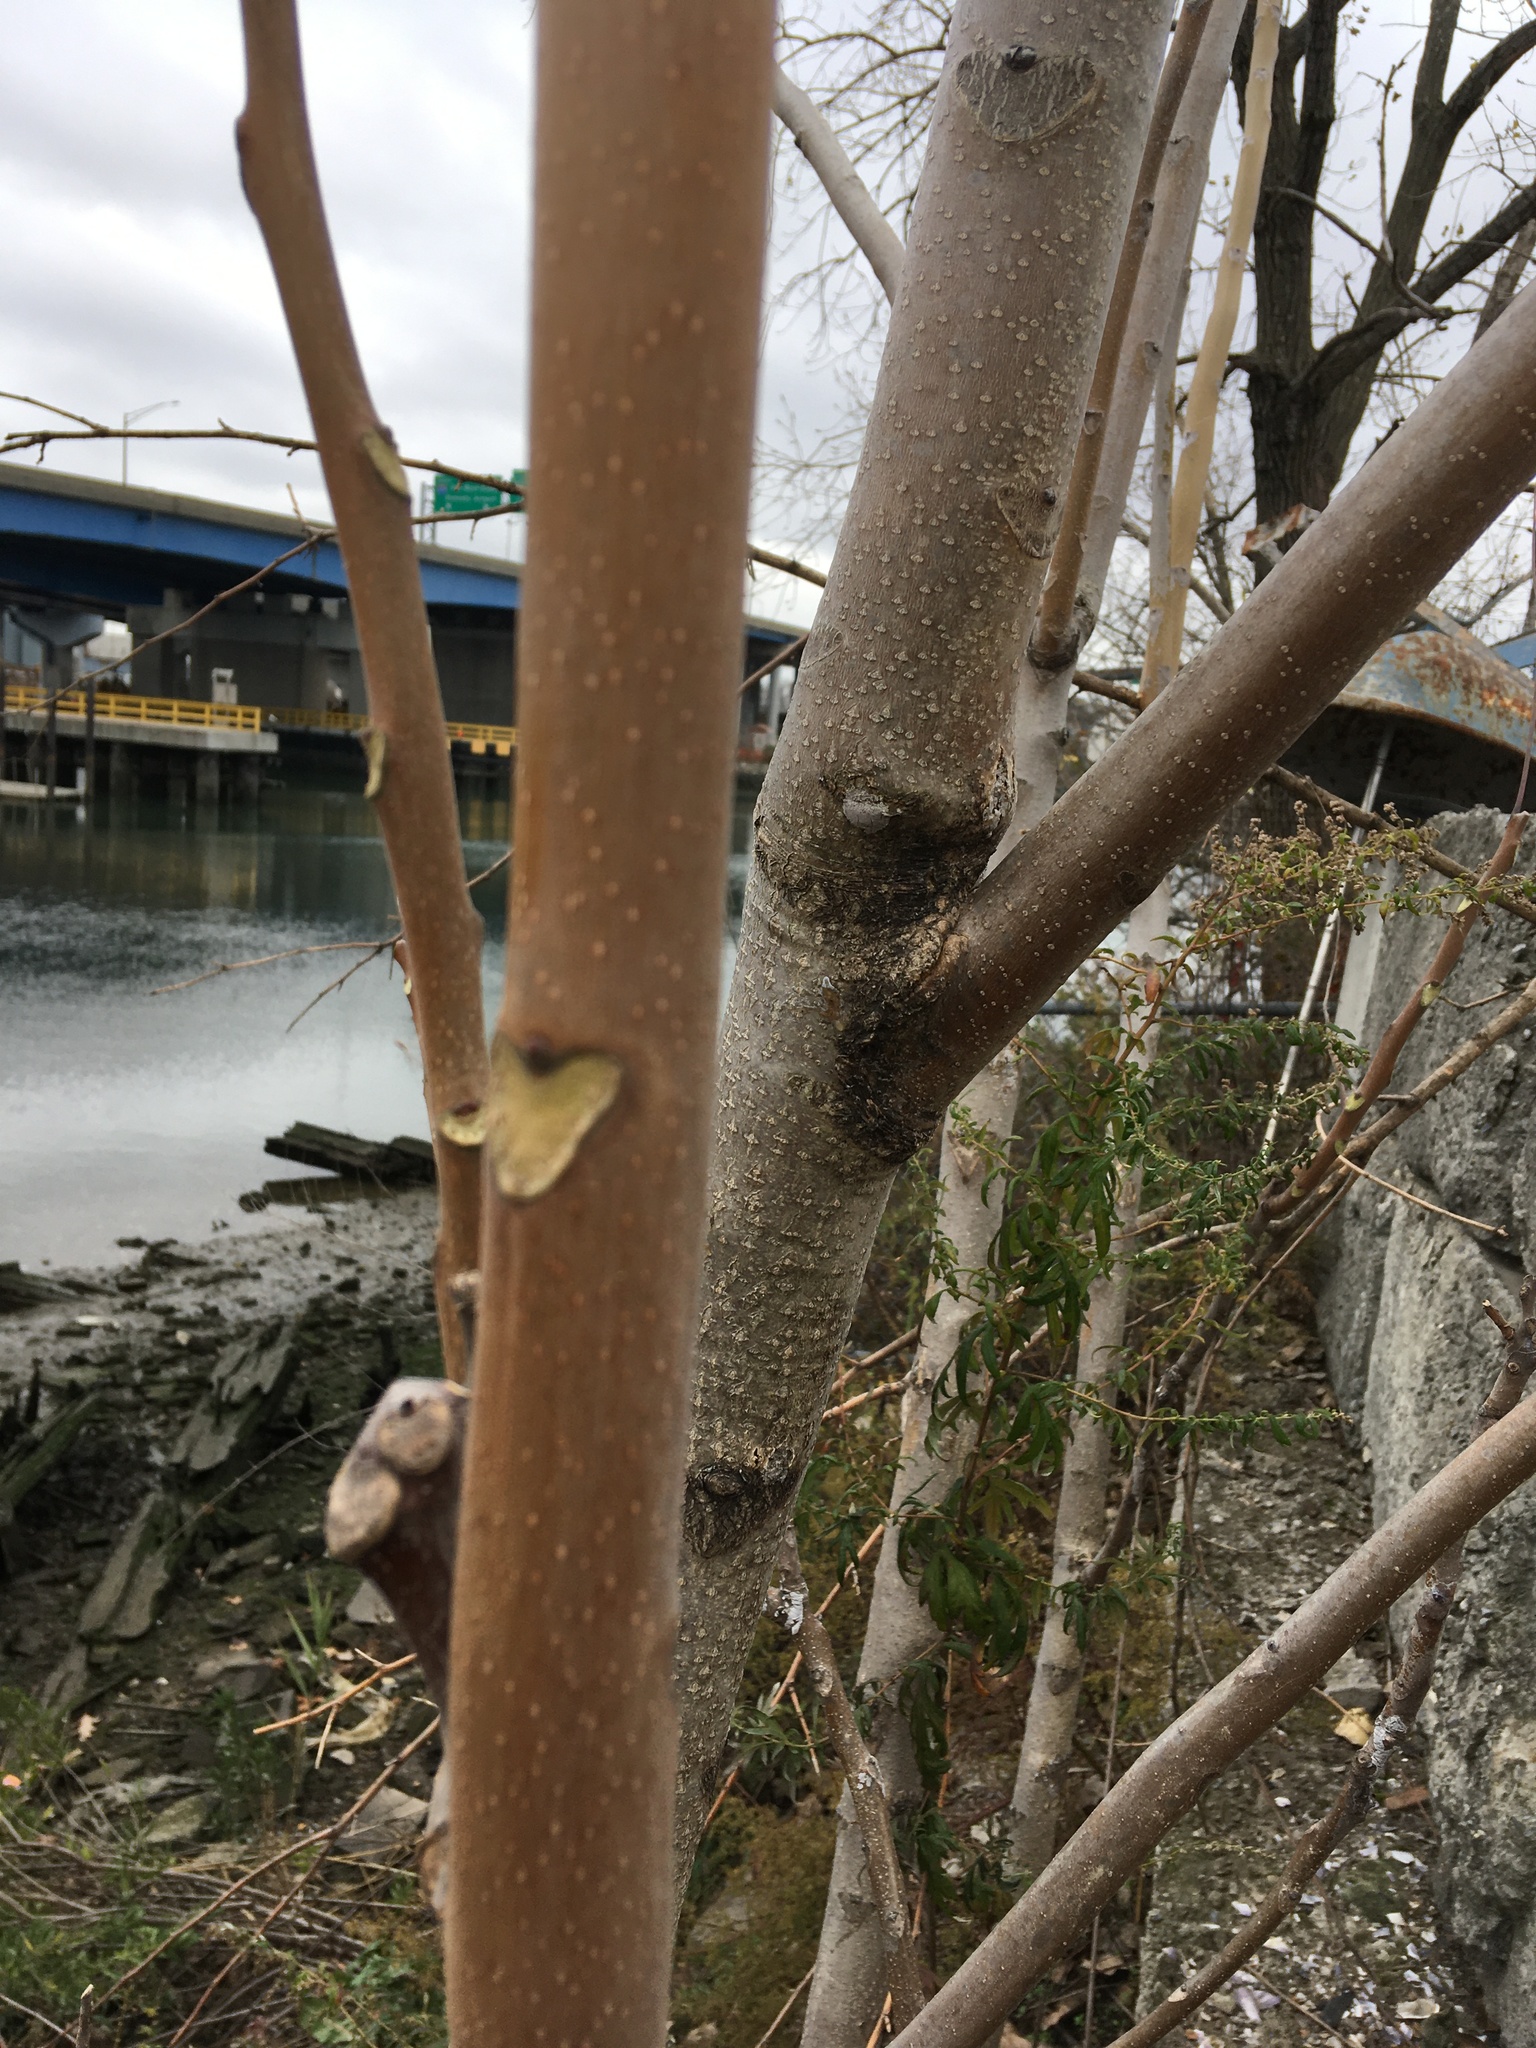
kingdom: Plantae
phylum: Tracheophyta
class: Magnoliopsida
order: Sapindales
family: Simaroubaceae
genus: Ailanthus
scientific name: Ailanthus altissima
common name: Tree-of-heaven
